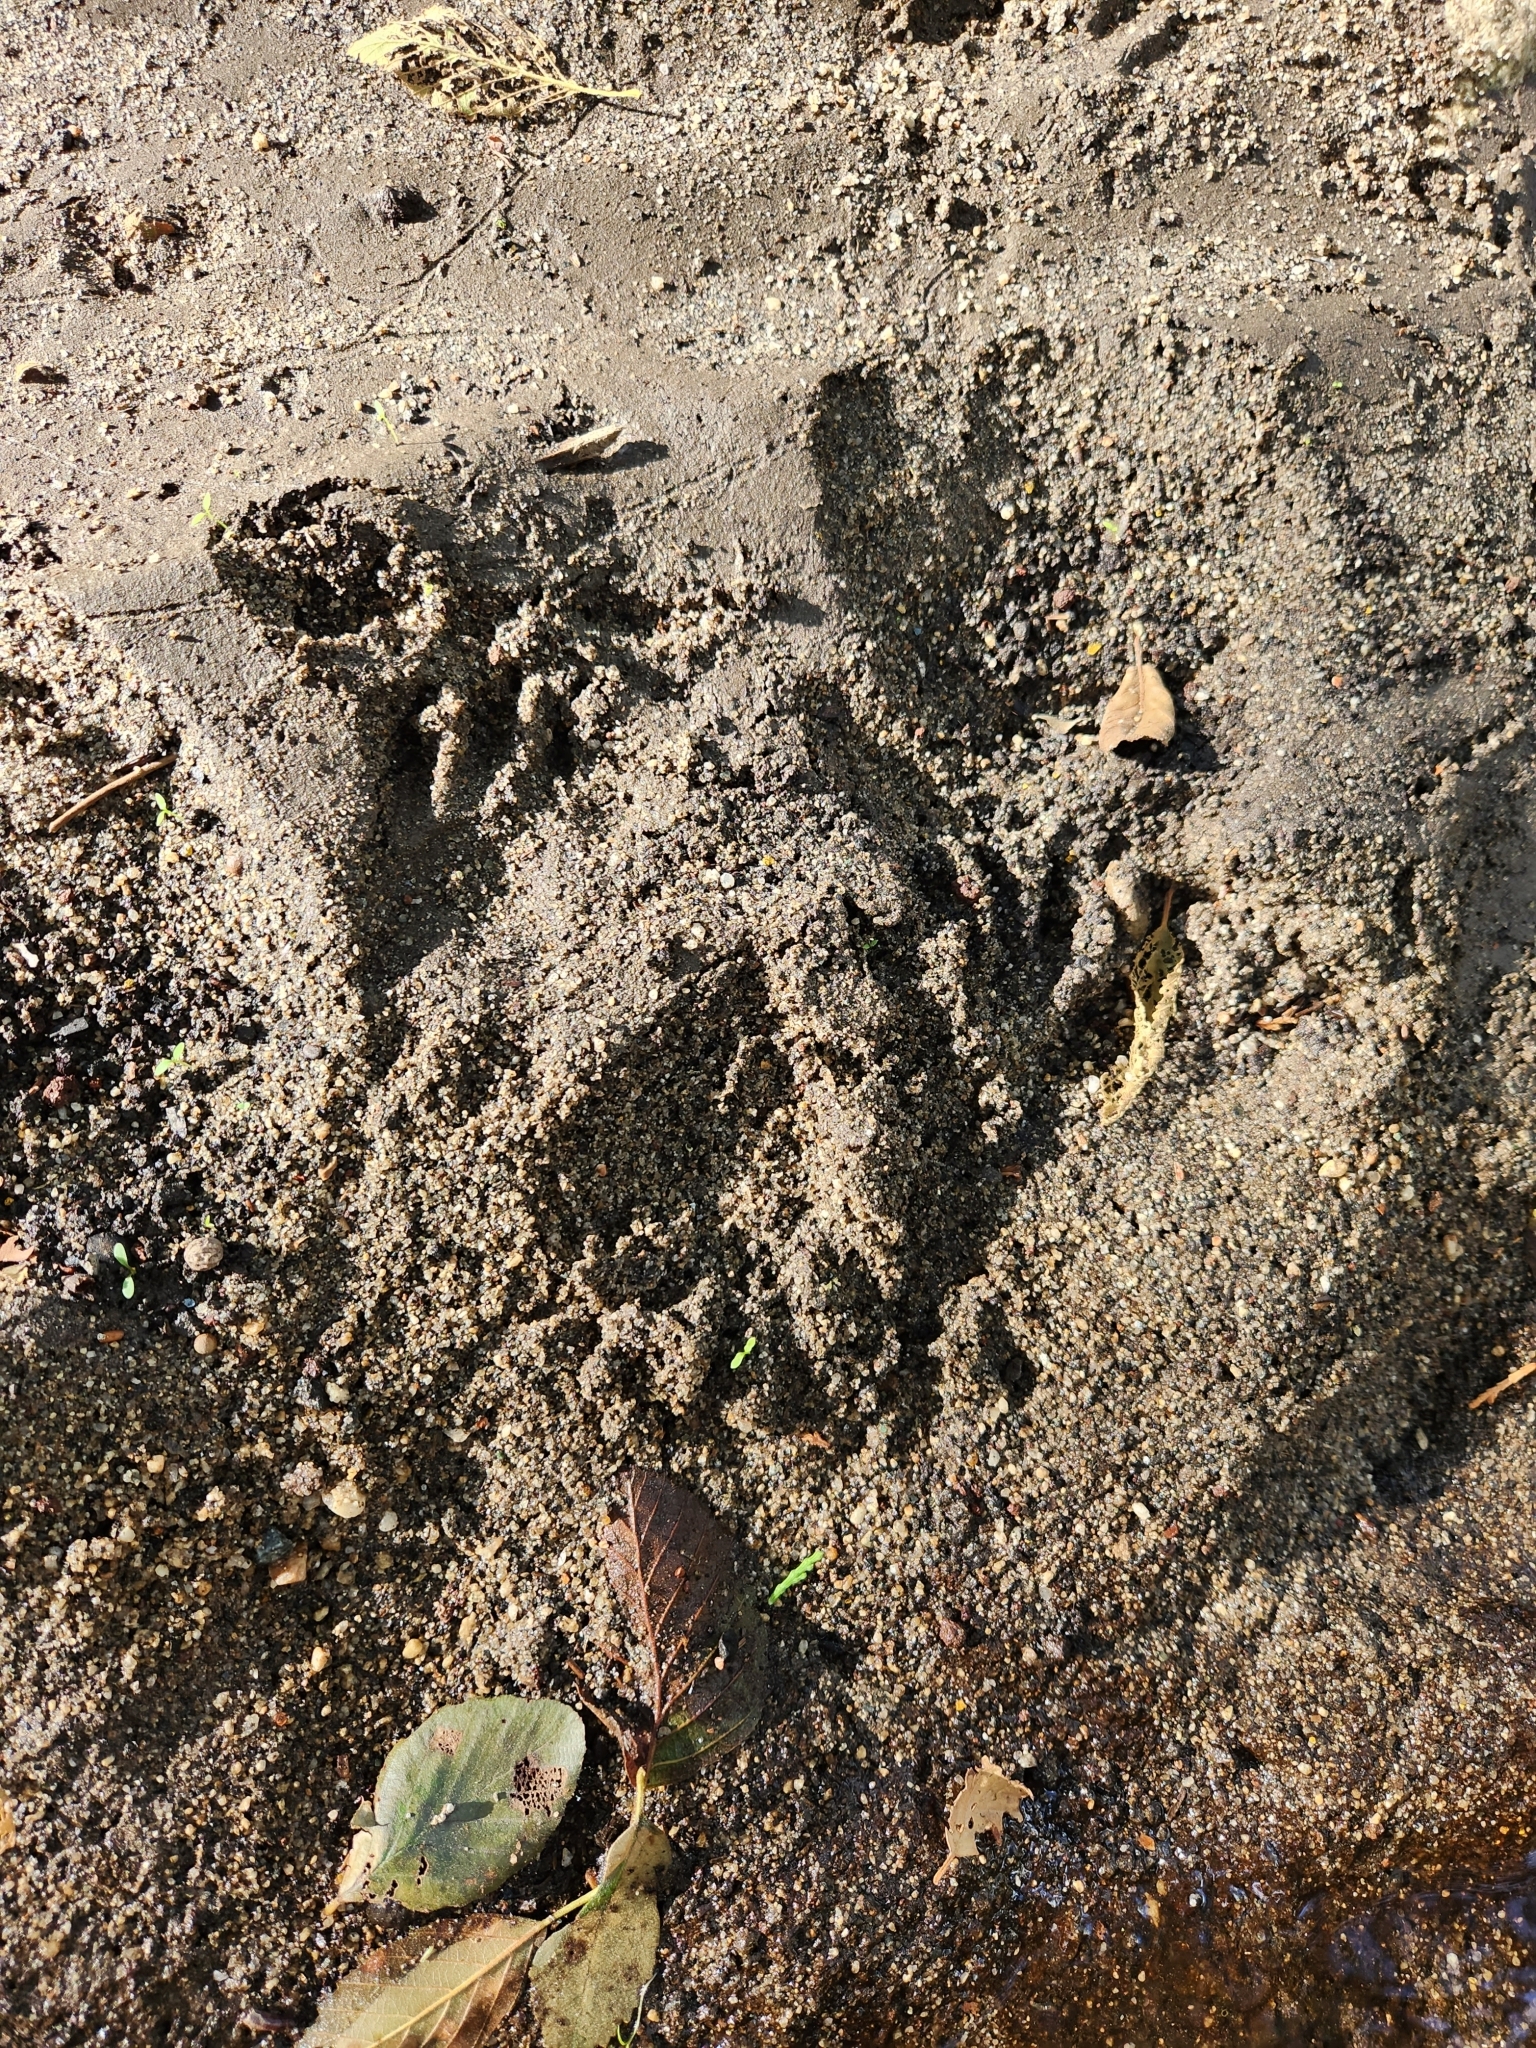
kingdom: Animalia
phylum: Chordata
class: Mammalia
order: Carnivora
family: Procyonidae
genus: Procyon
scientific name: Procyon lotor
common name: Raccoon
